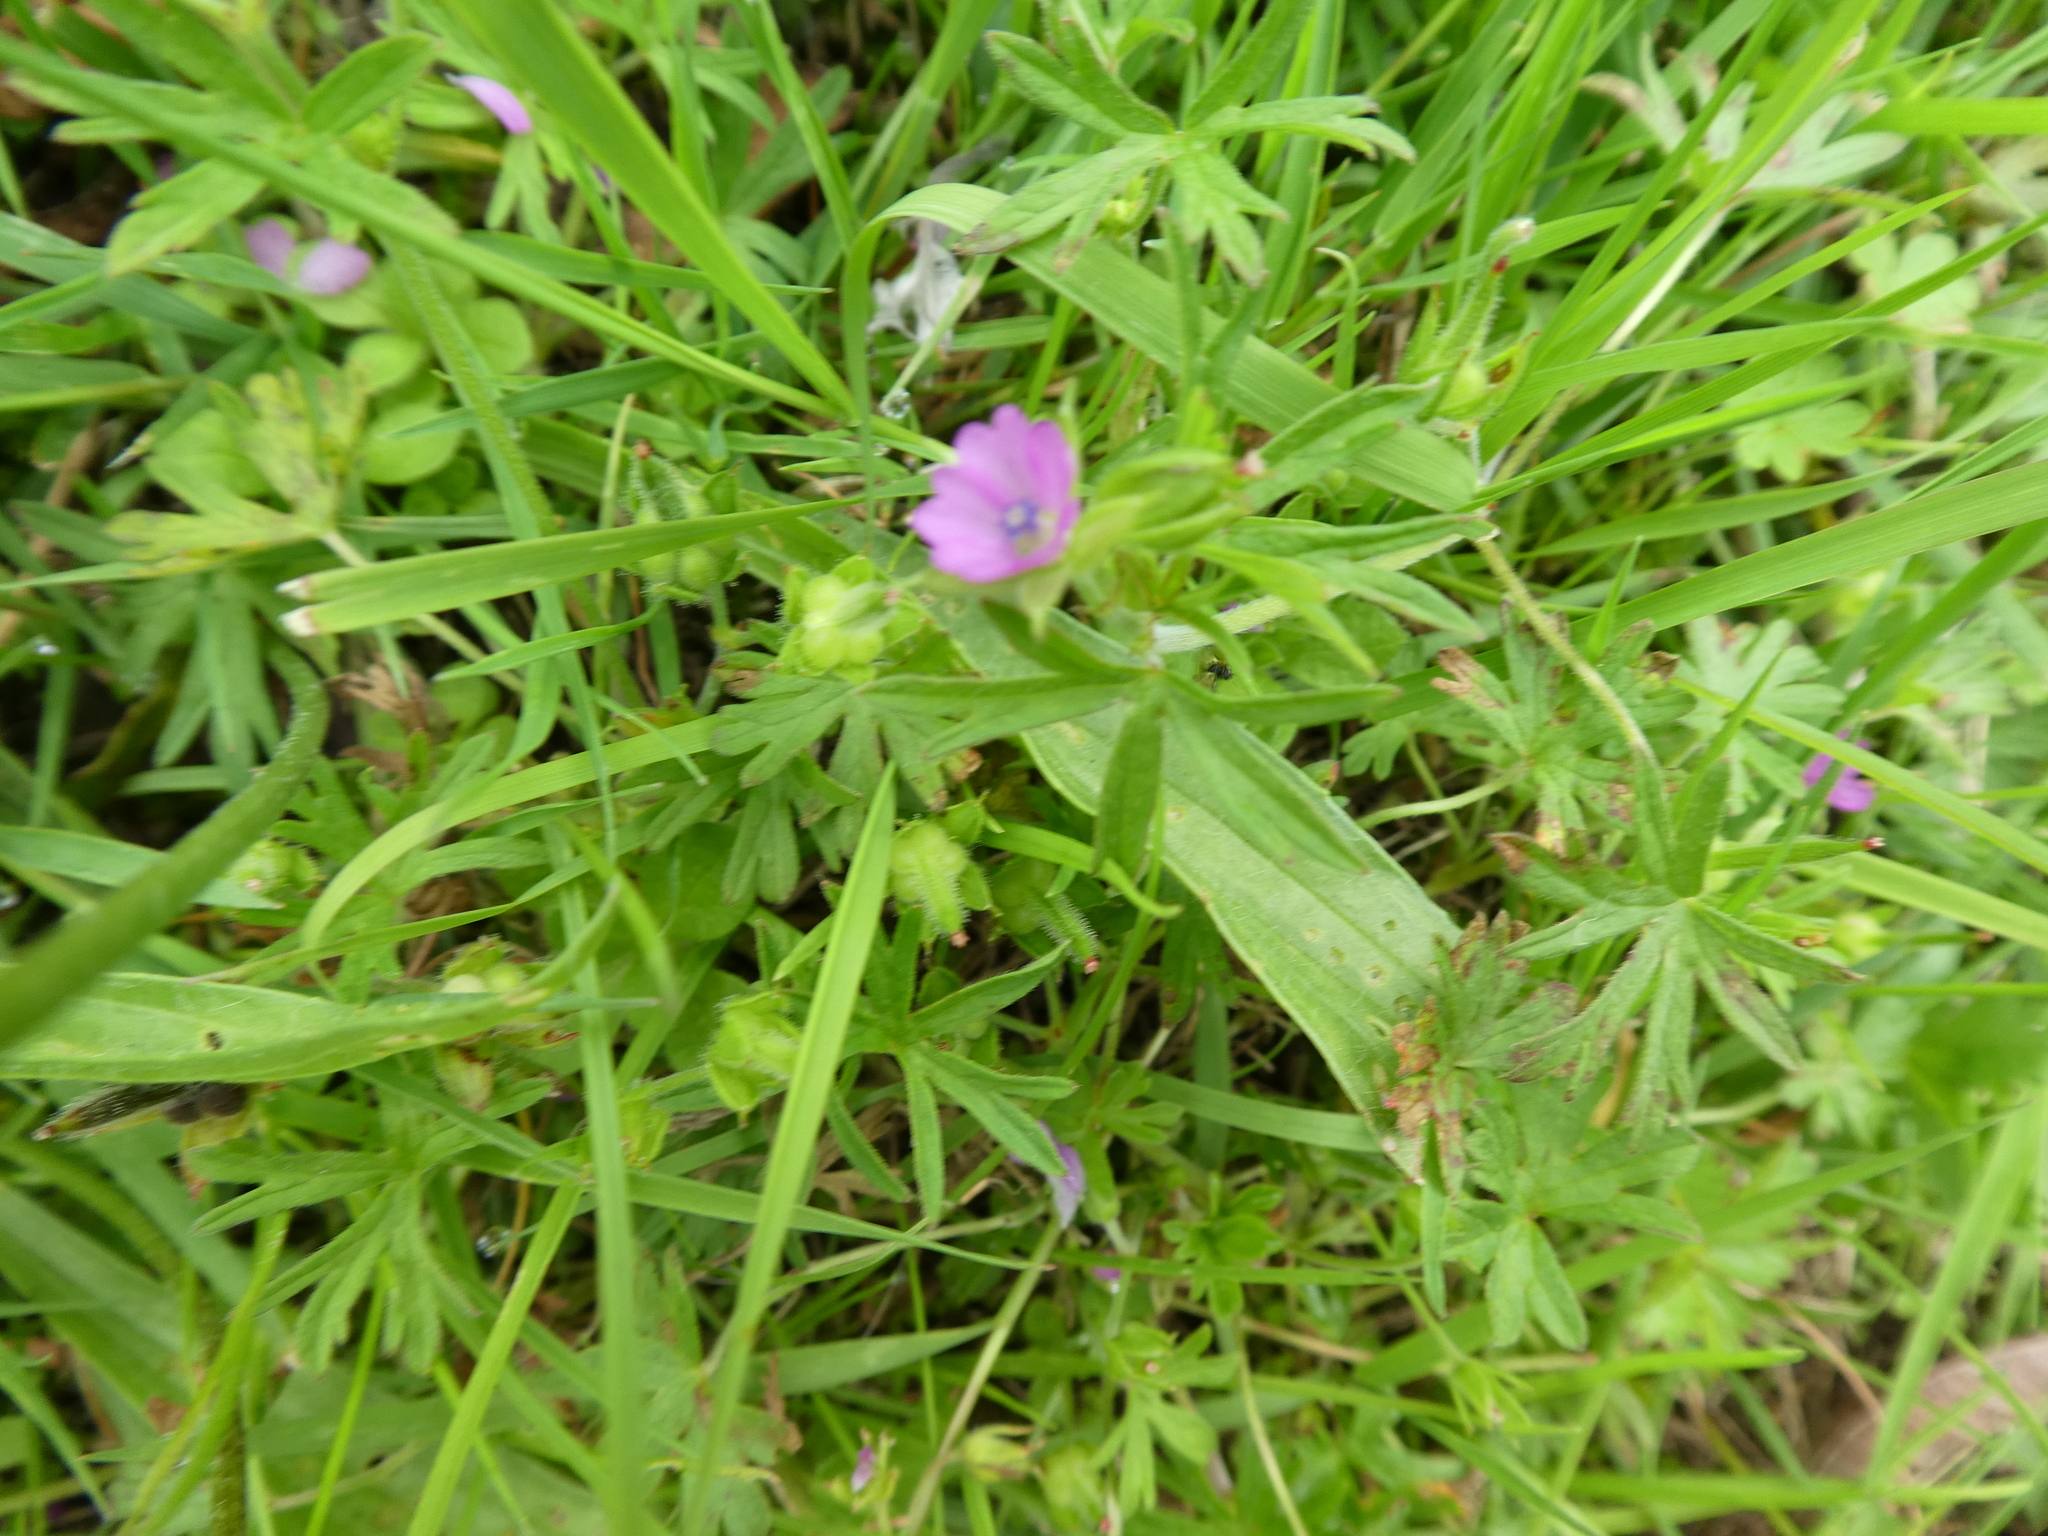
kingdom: Plantae
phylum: Tracheophyta
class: Magnoliopsida
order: Geraniales
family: Geraniaceae
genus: Geranium
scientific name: Geranium dissectum
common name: Cut-leaved crane's-bill
